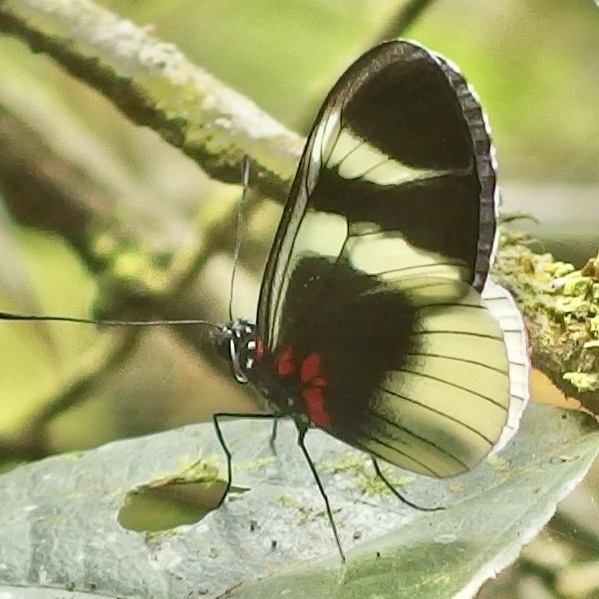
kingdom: Animalia
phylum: Arthropoda
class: Insecta
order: Lepidoptera
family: Nymphalidae
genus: Heliconius
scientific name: Heliconius eleuchia
